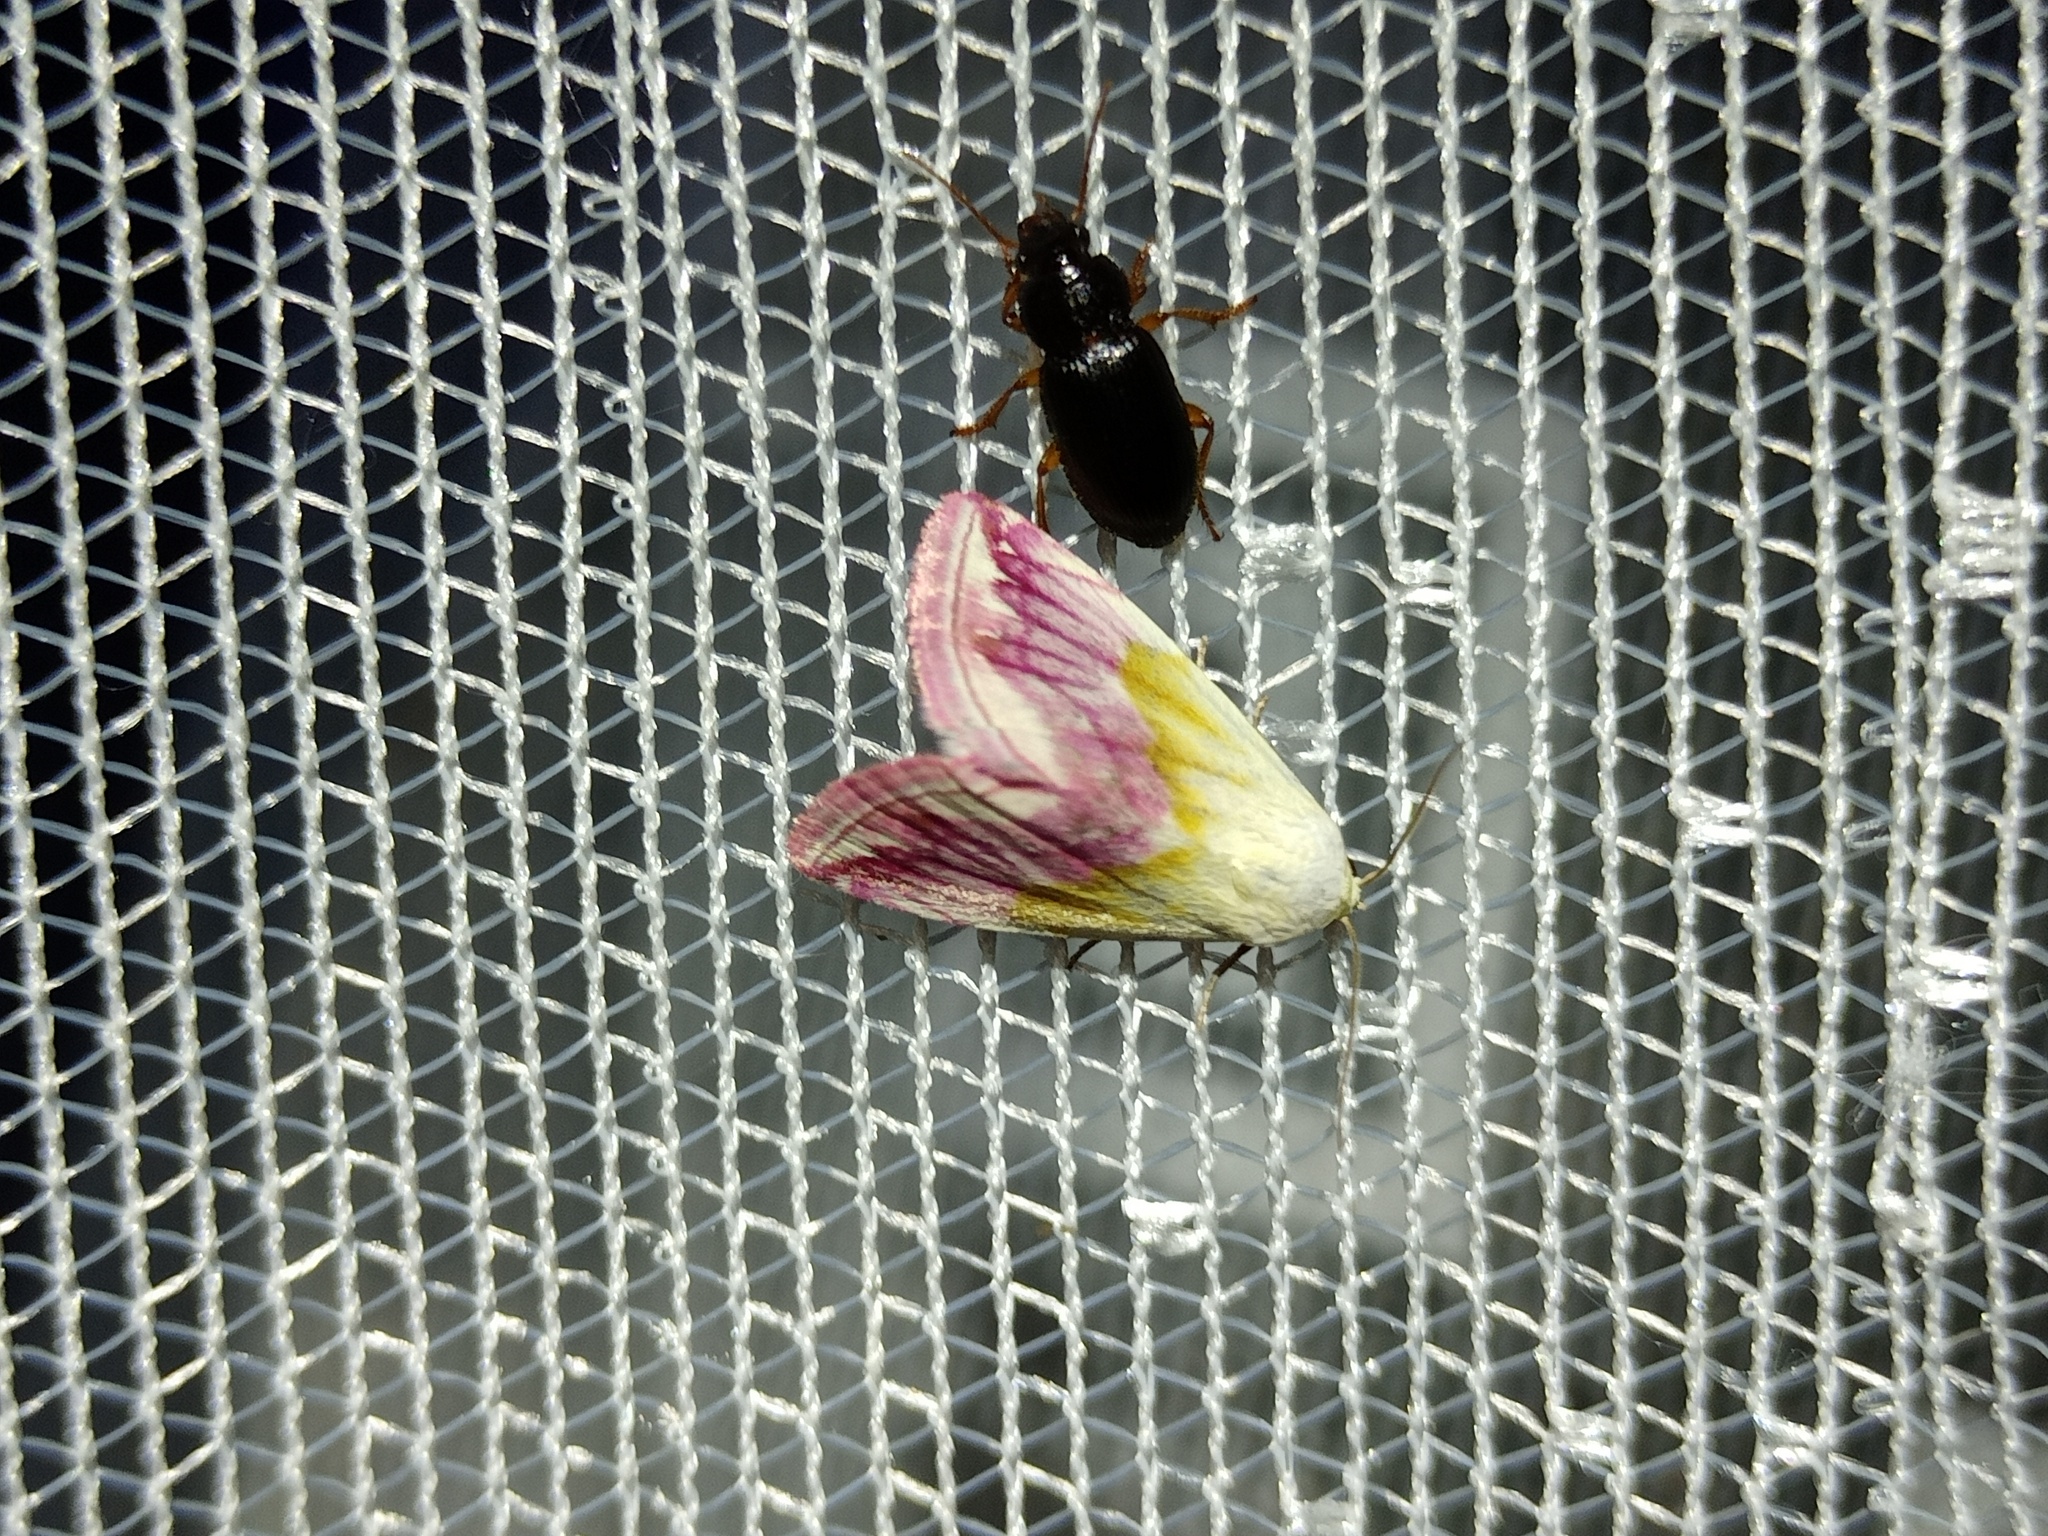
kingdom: Animalia
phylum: Arthropoda
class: Insecta
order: Lepidoptera
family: Noctuidae
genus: Eublemma
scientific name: Eublemma purpurina
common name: Beautiful marbled
